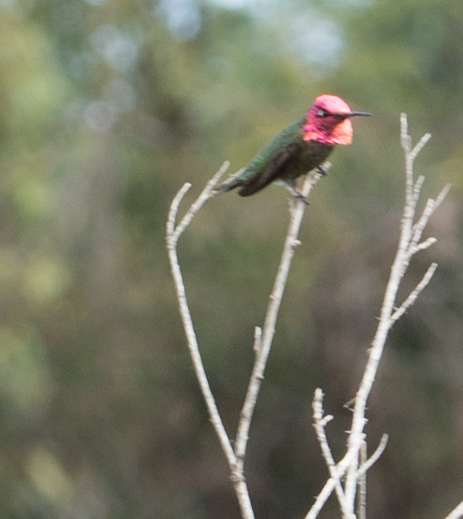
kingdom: Animalia
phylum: Chordata
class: Aves
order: Apodiformes
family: Trochilidae
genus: Calypte
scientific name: Calypte anna
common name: Anna's hummingbird
